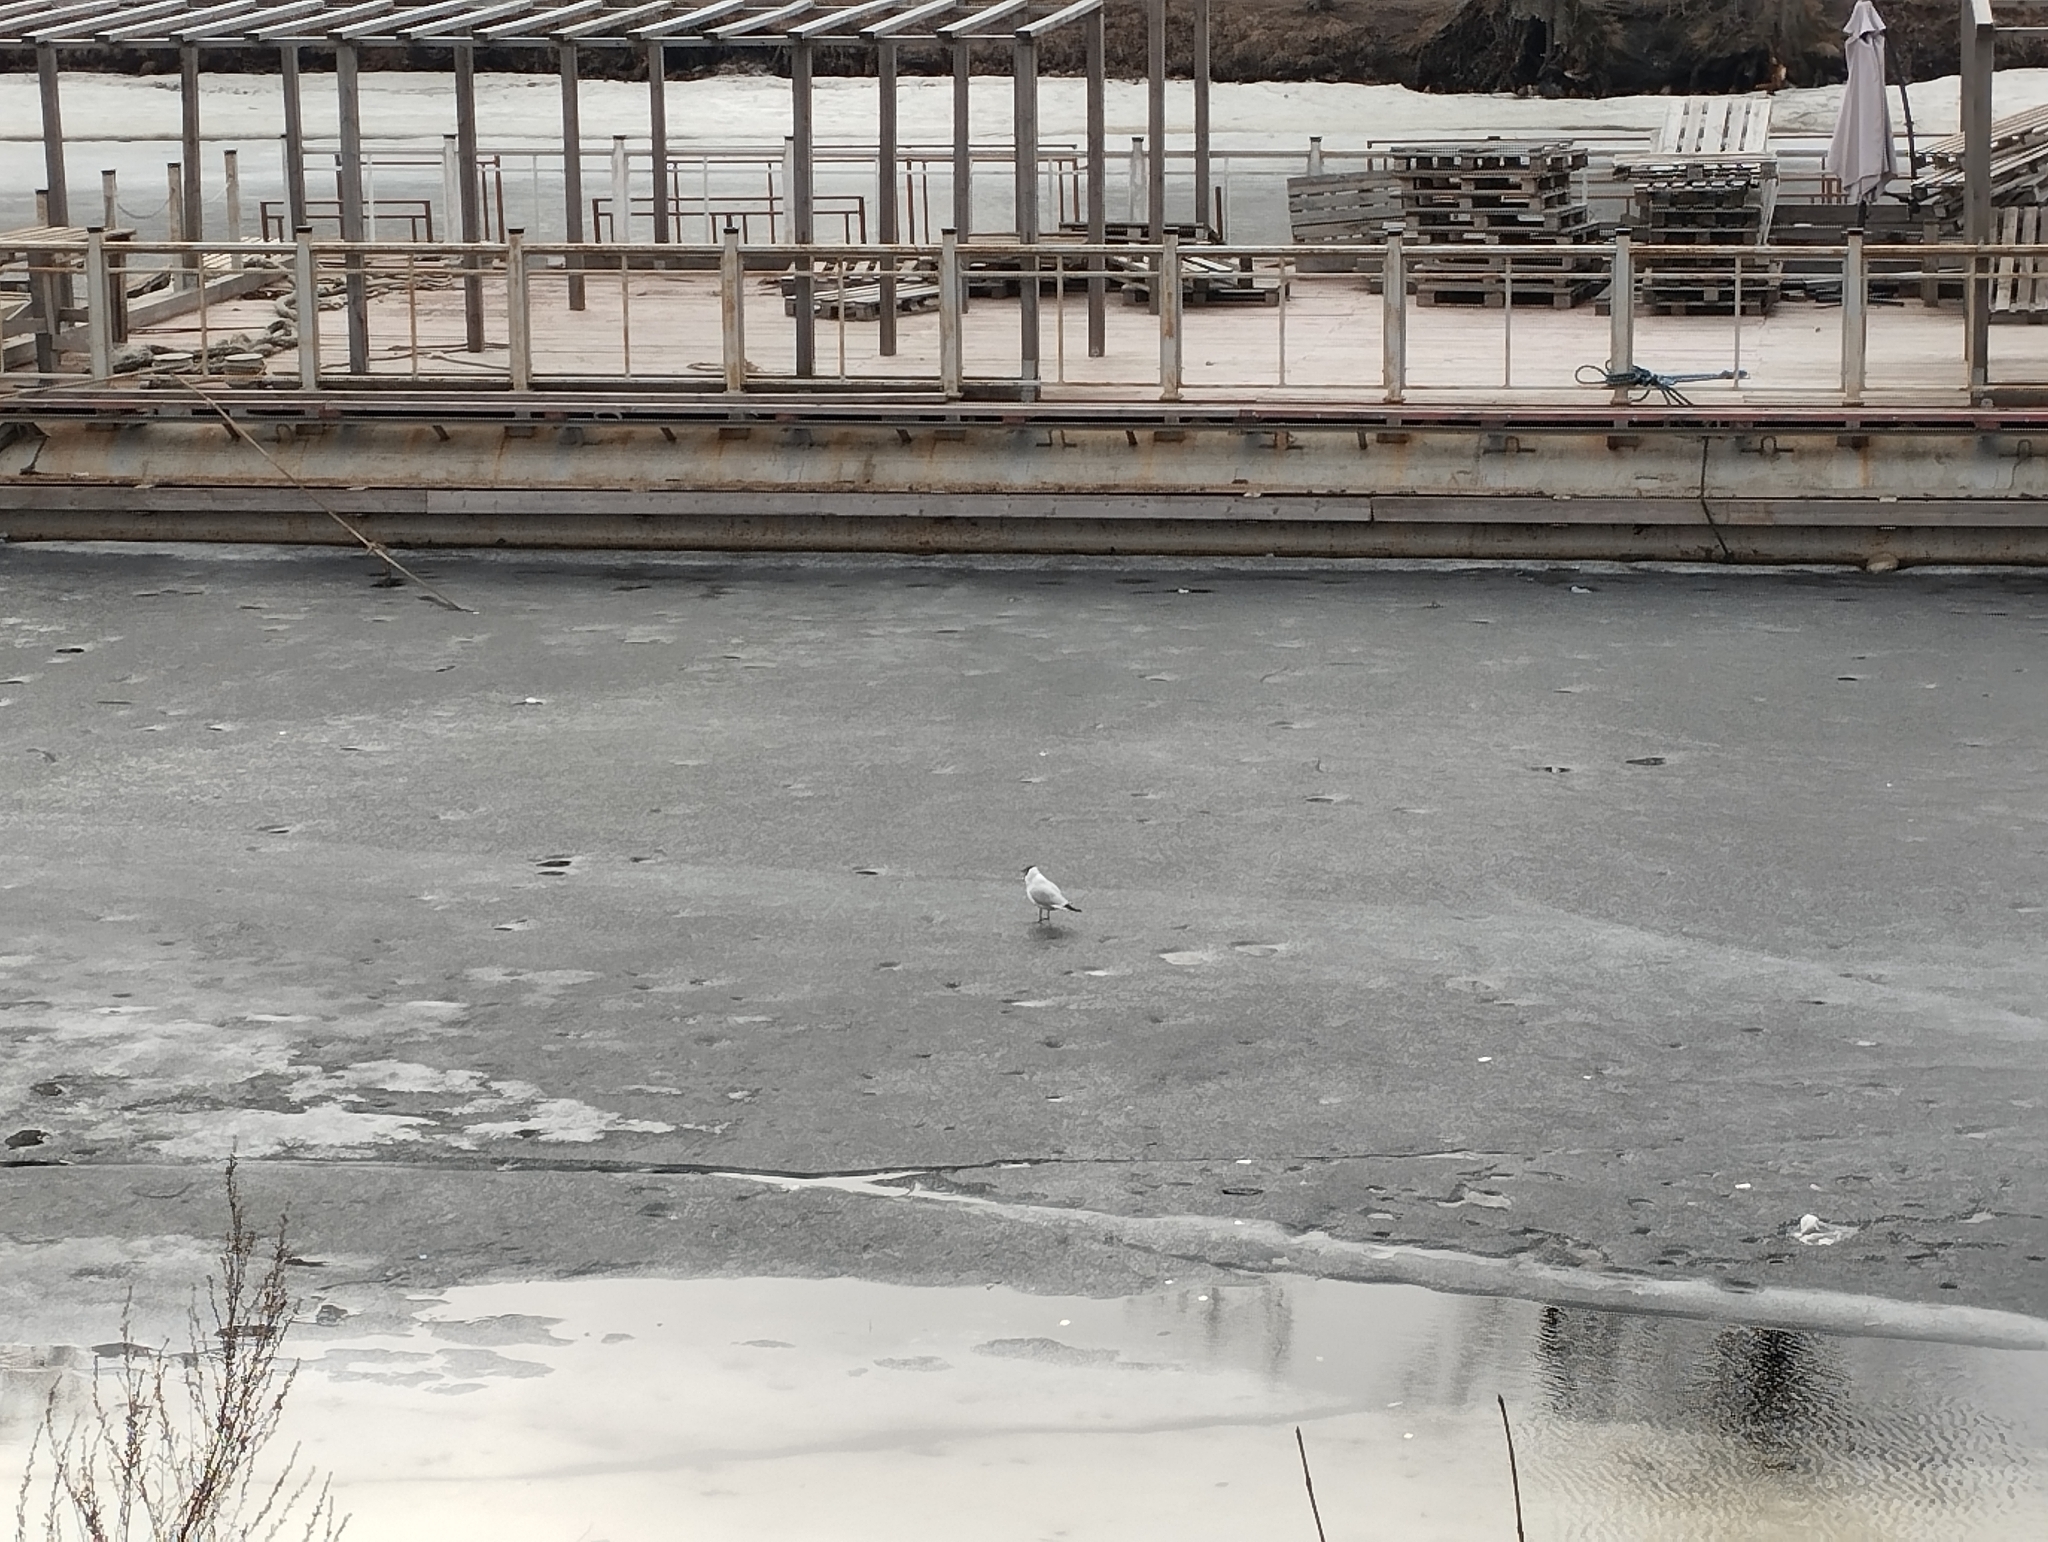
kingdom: Animalia
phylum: Chordata
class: Aves
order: Charadriiformes
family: Laridae
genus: Chroicocephalus
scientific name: Chroicocephalus ridibundus
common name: Black-headed gull
